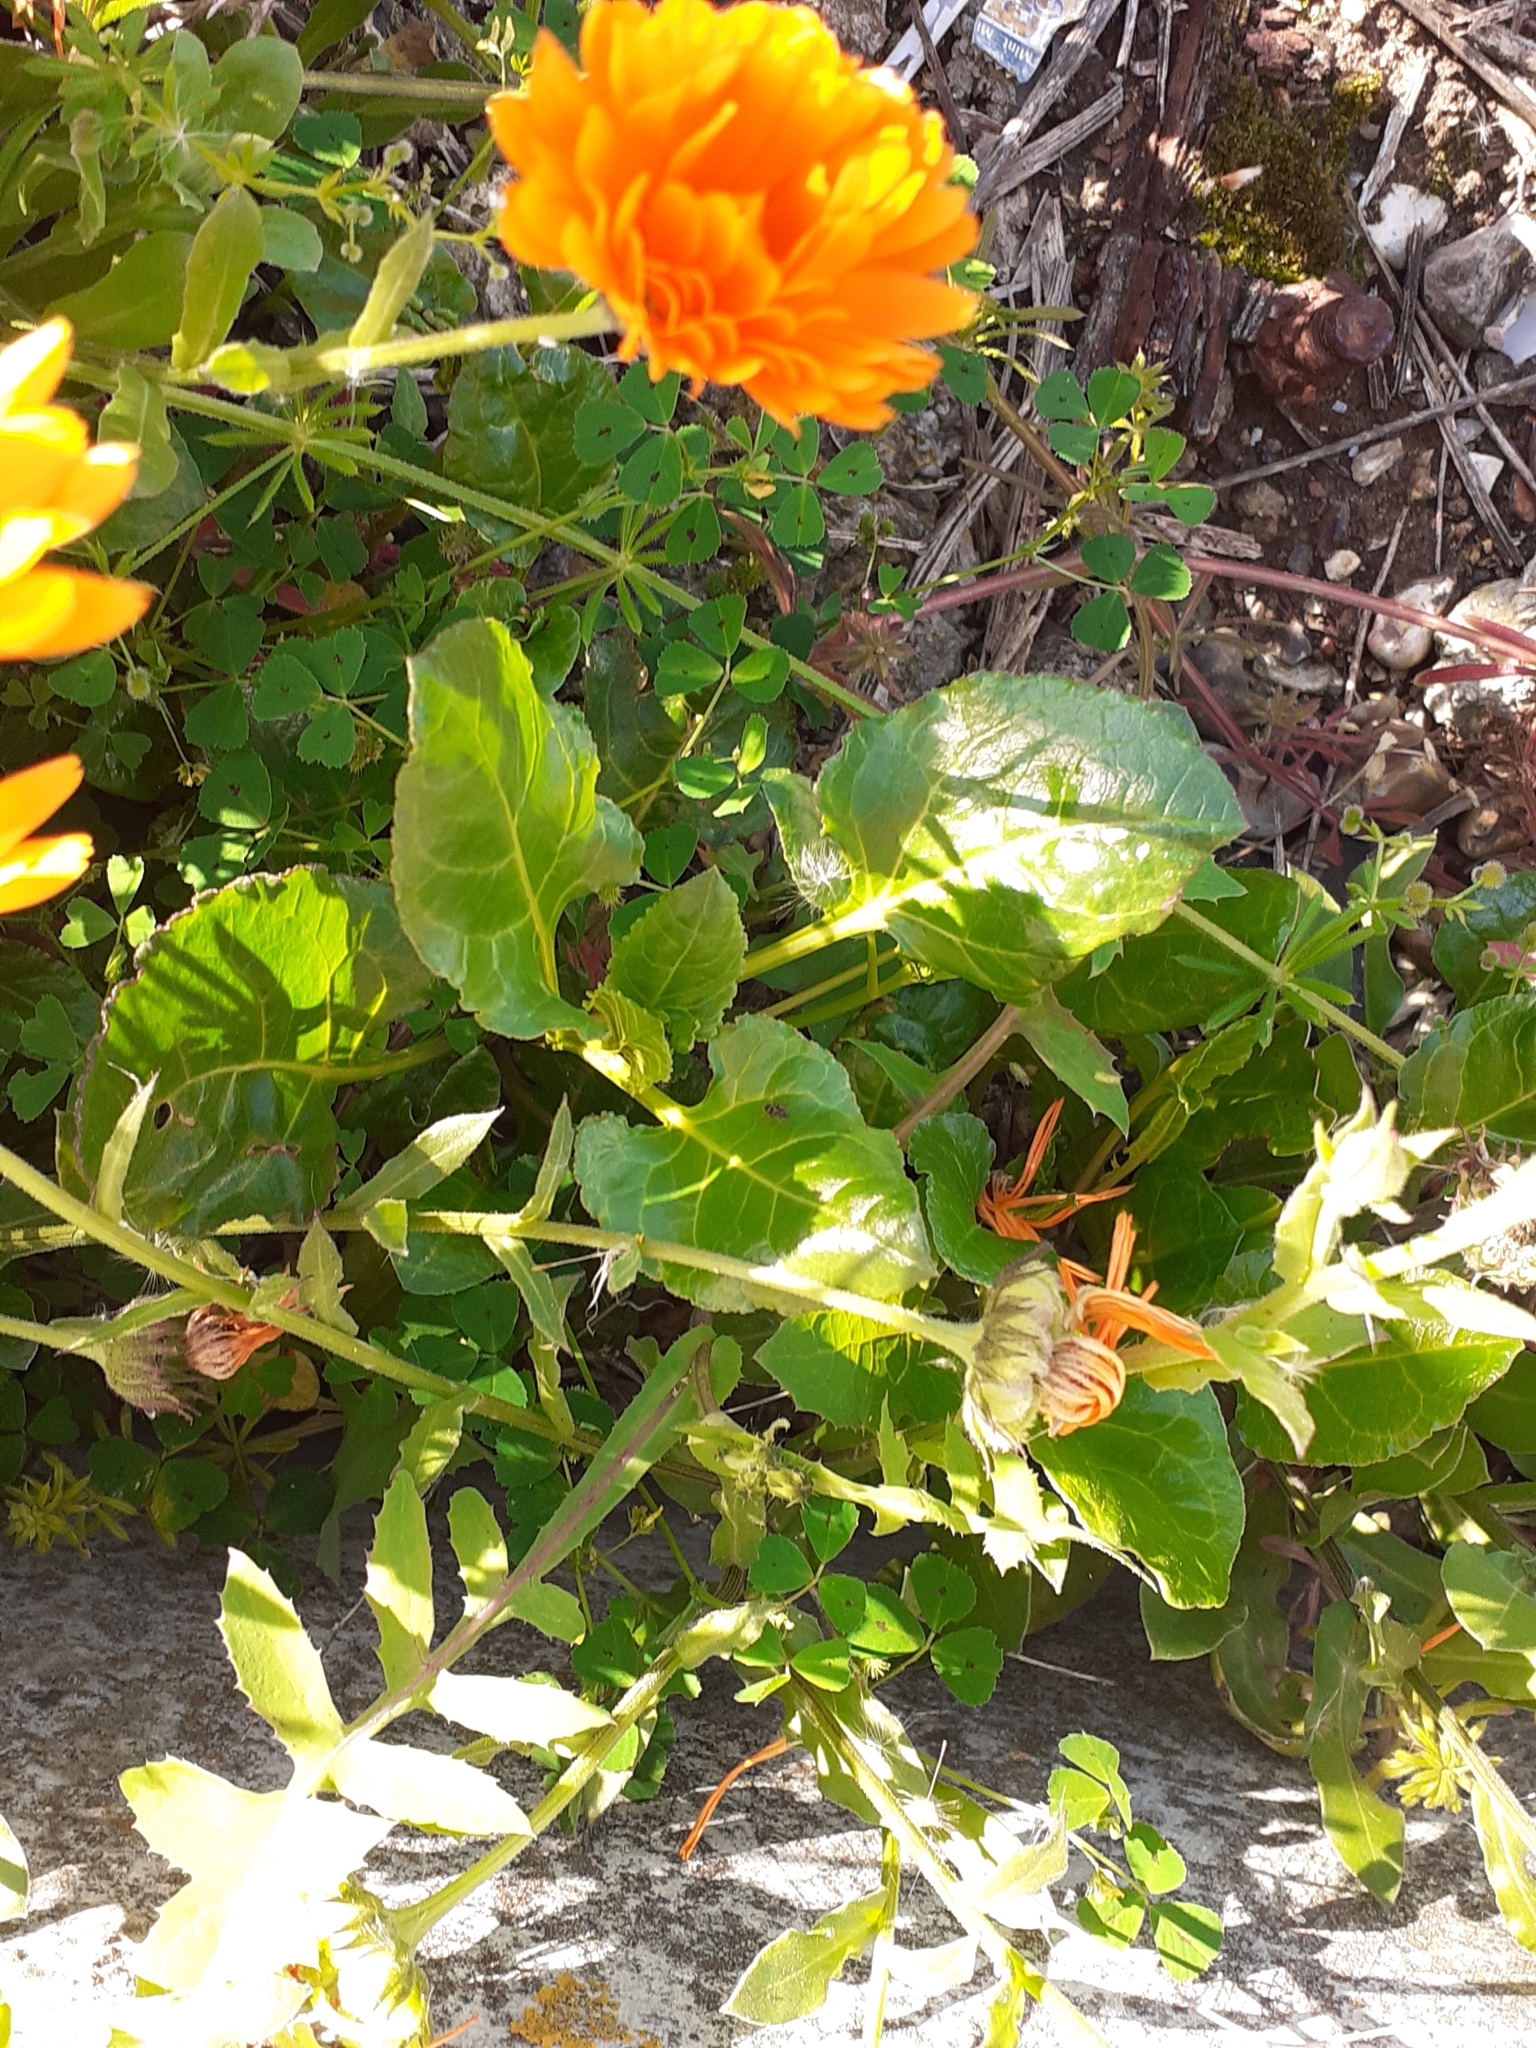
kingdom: Plantae
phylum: Tracheophyta
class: Magnoliopsida
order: Asterales
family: Asteraceae
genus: Calendula
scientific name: Calendula officinalis
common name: Pot marigold
